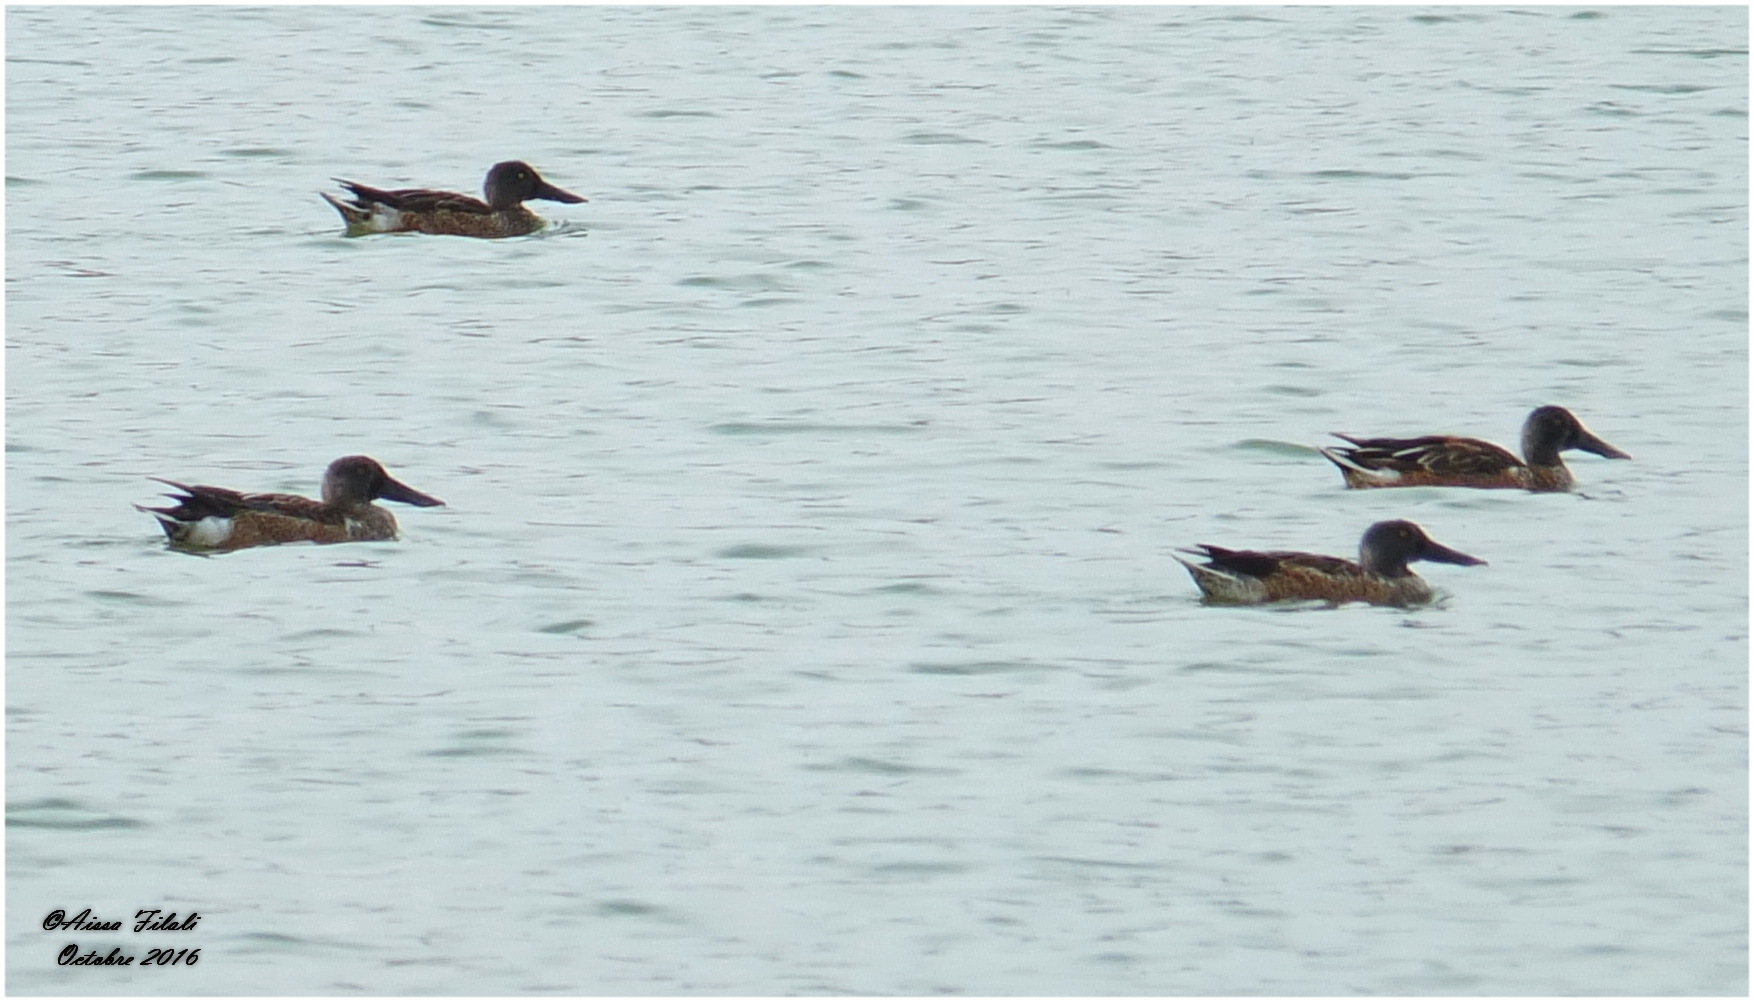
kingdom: Animalia
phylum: Chordata
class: Aves
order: Anseriformes
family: Anatidae
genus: Spatula
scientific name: Spatula clypeata
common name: Northern shoveler
